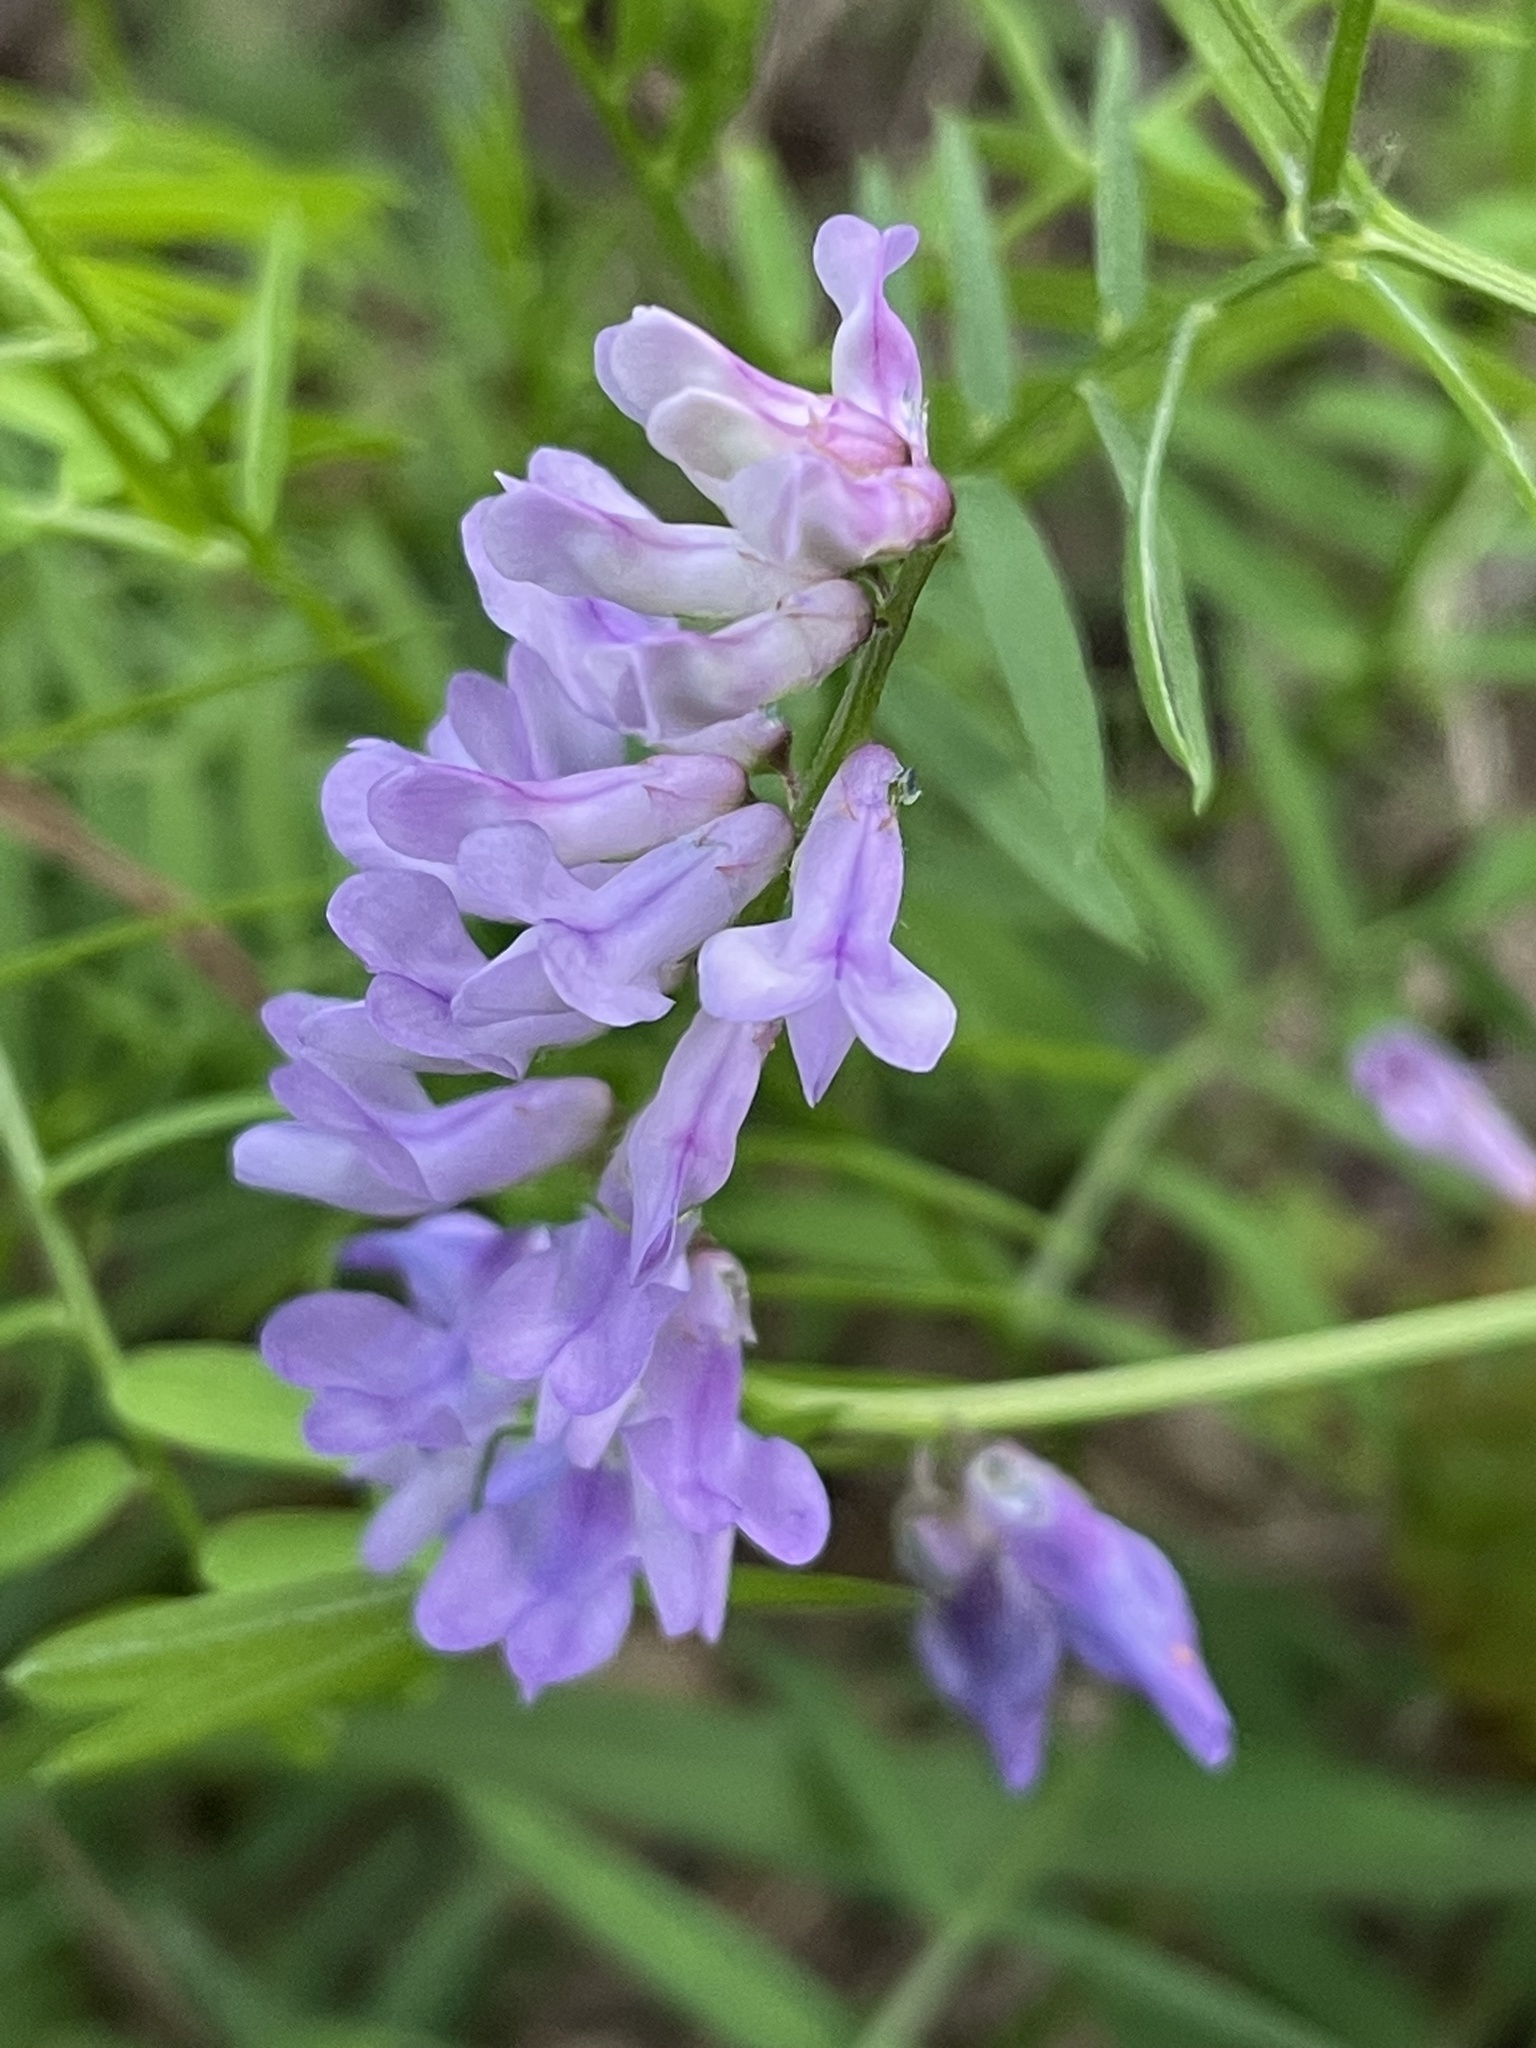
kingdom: Plantae
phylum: Tracheophyta
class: Magnoliopsida
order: Fabales
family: Fabaceae
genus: Vicia
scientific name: Vicia cracca
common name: Bird vetch
